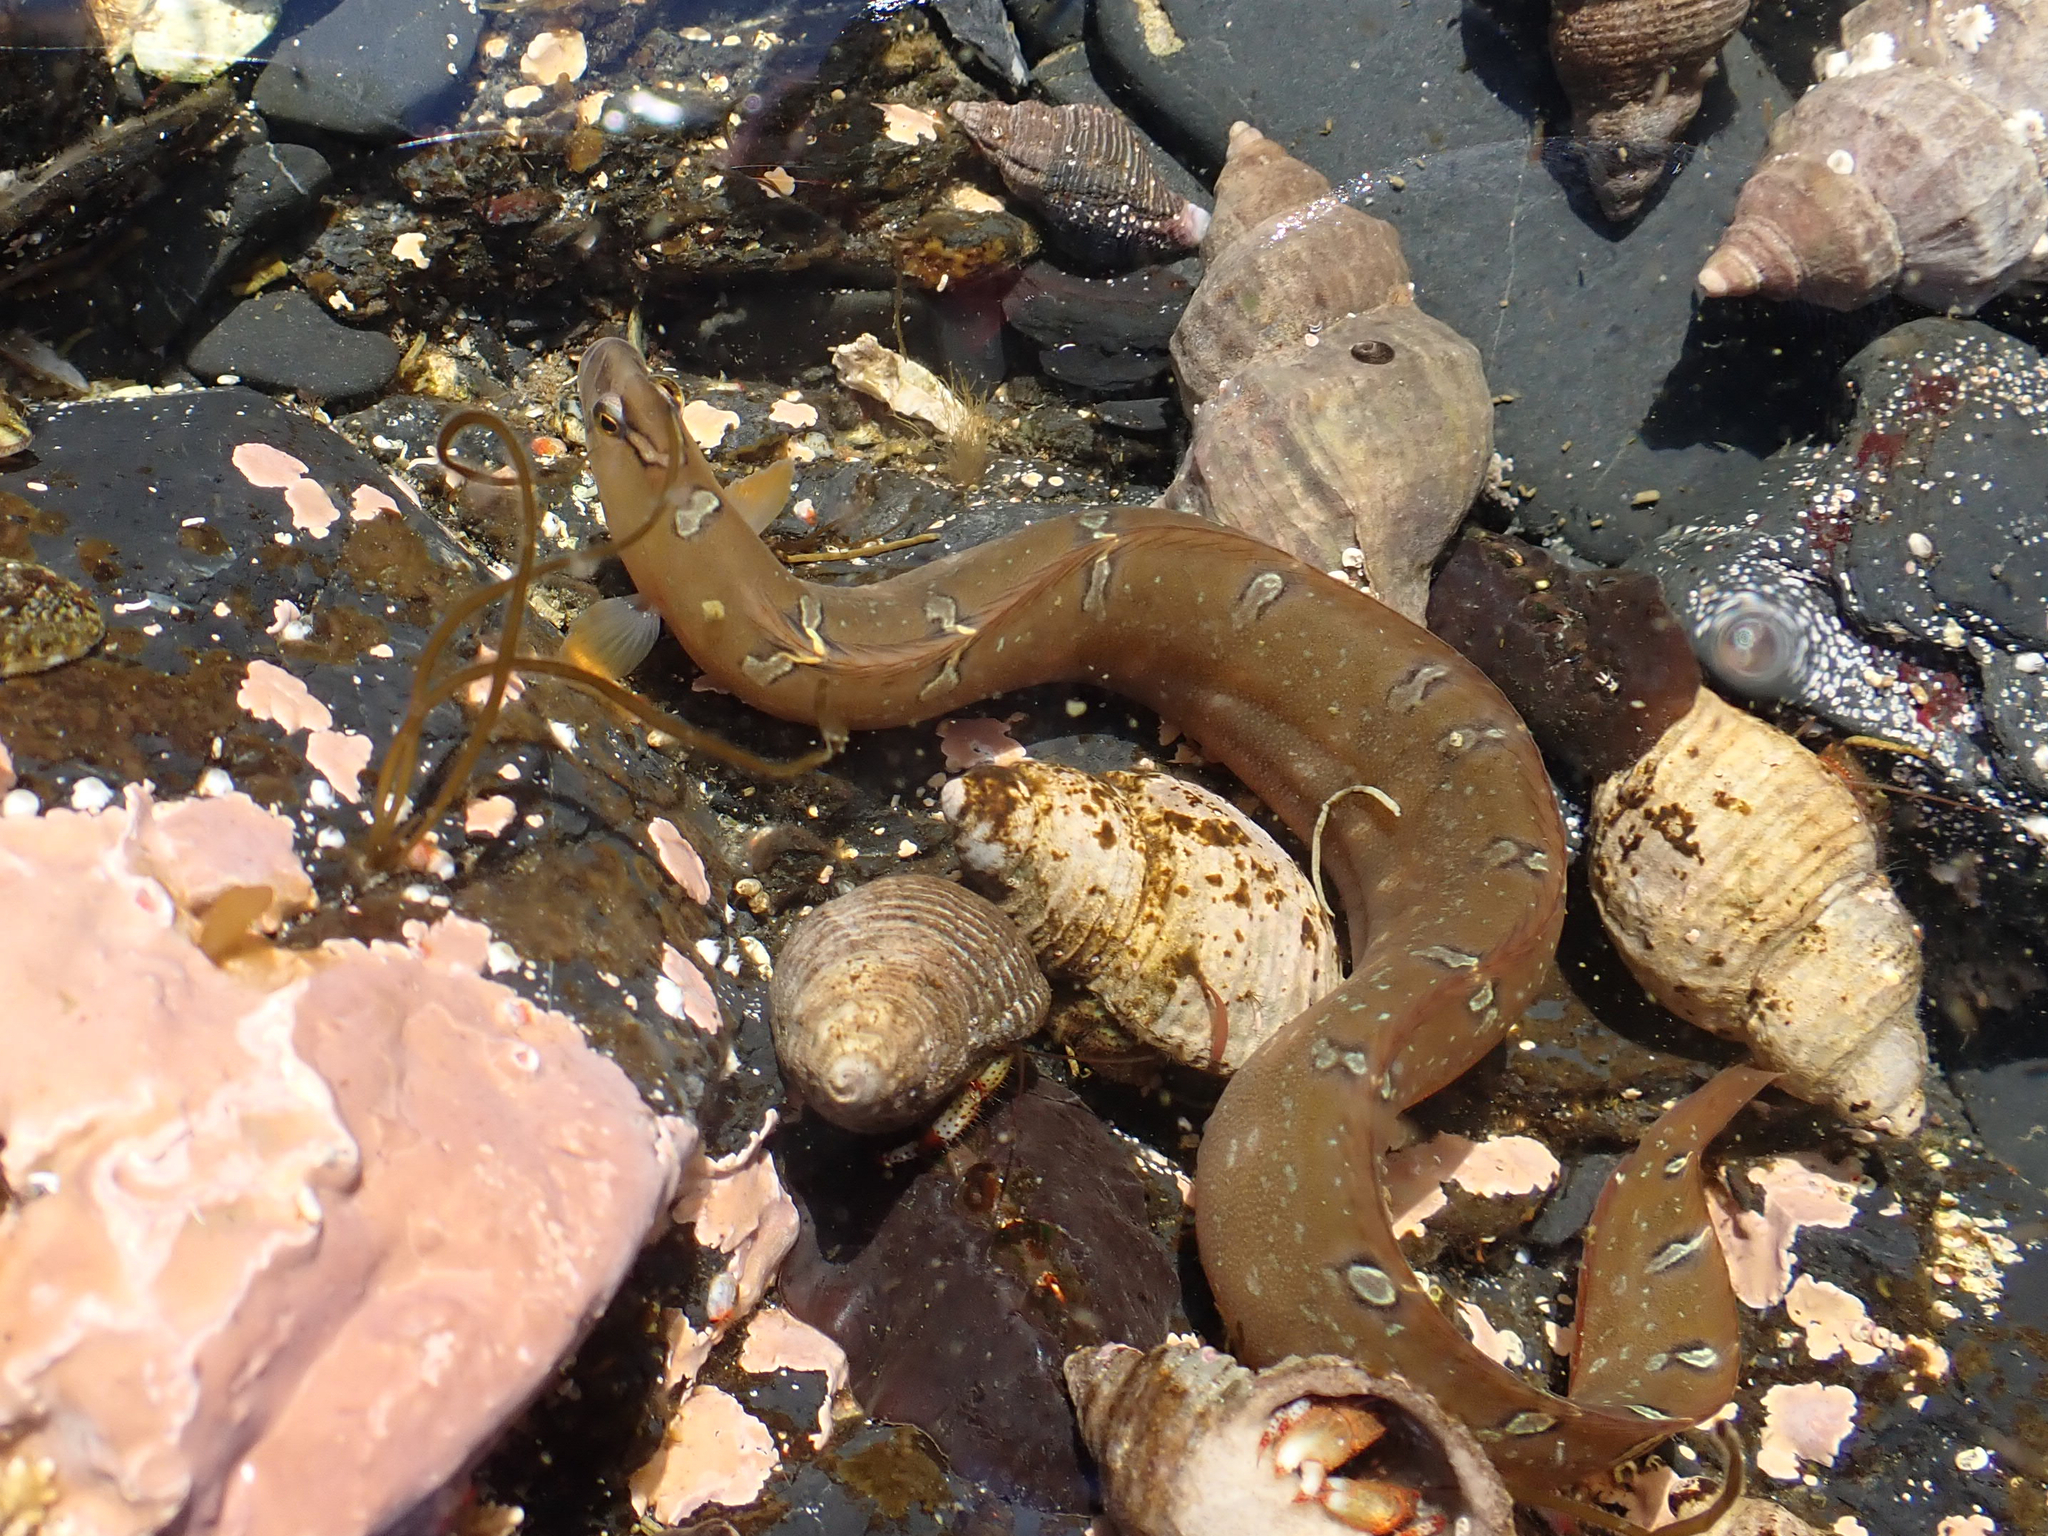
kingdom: Animalia
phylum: Chordata
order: Perciformes
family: Pholidae
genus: Pholis
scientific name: Pholis laeta
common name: Crescent gunnel
